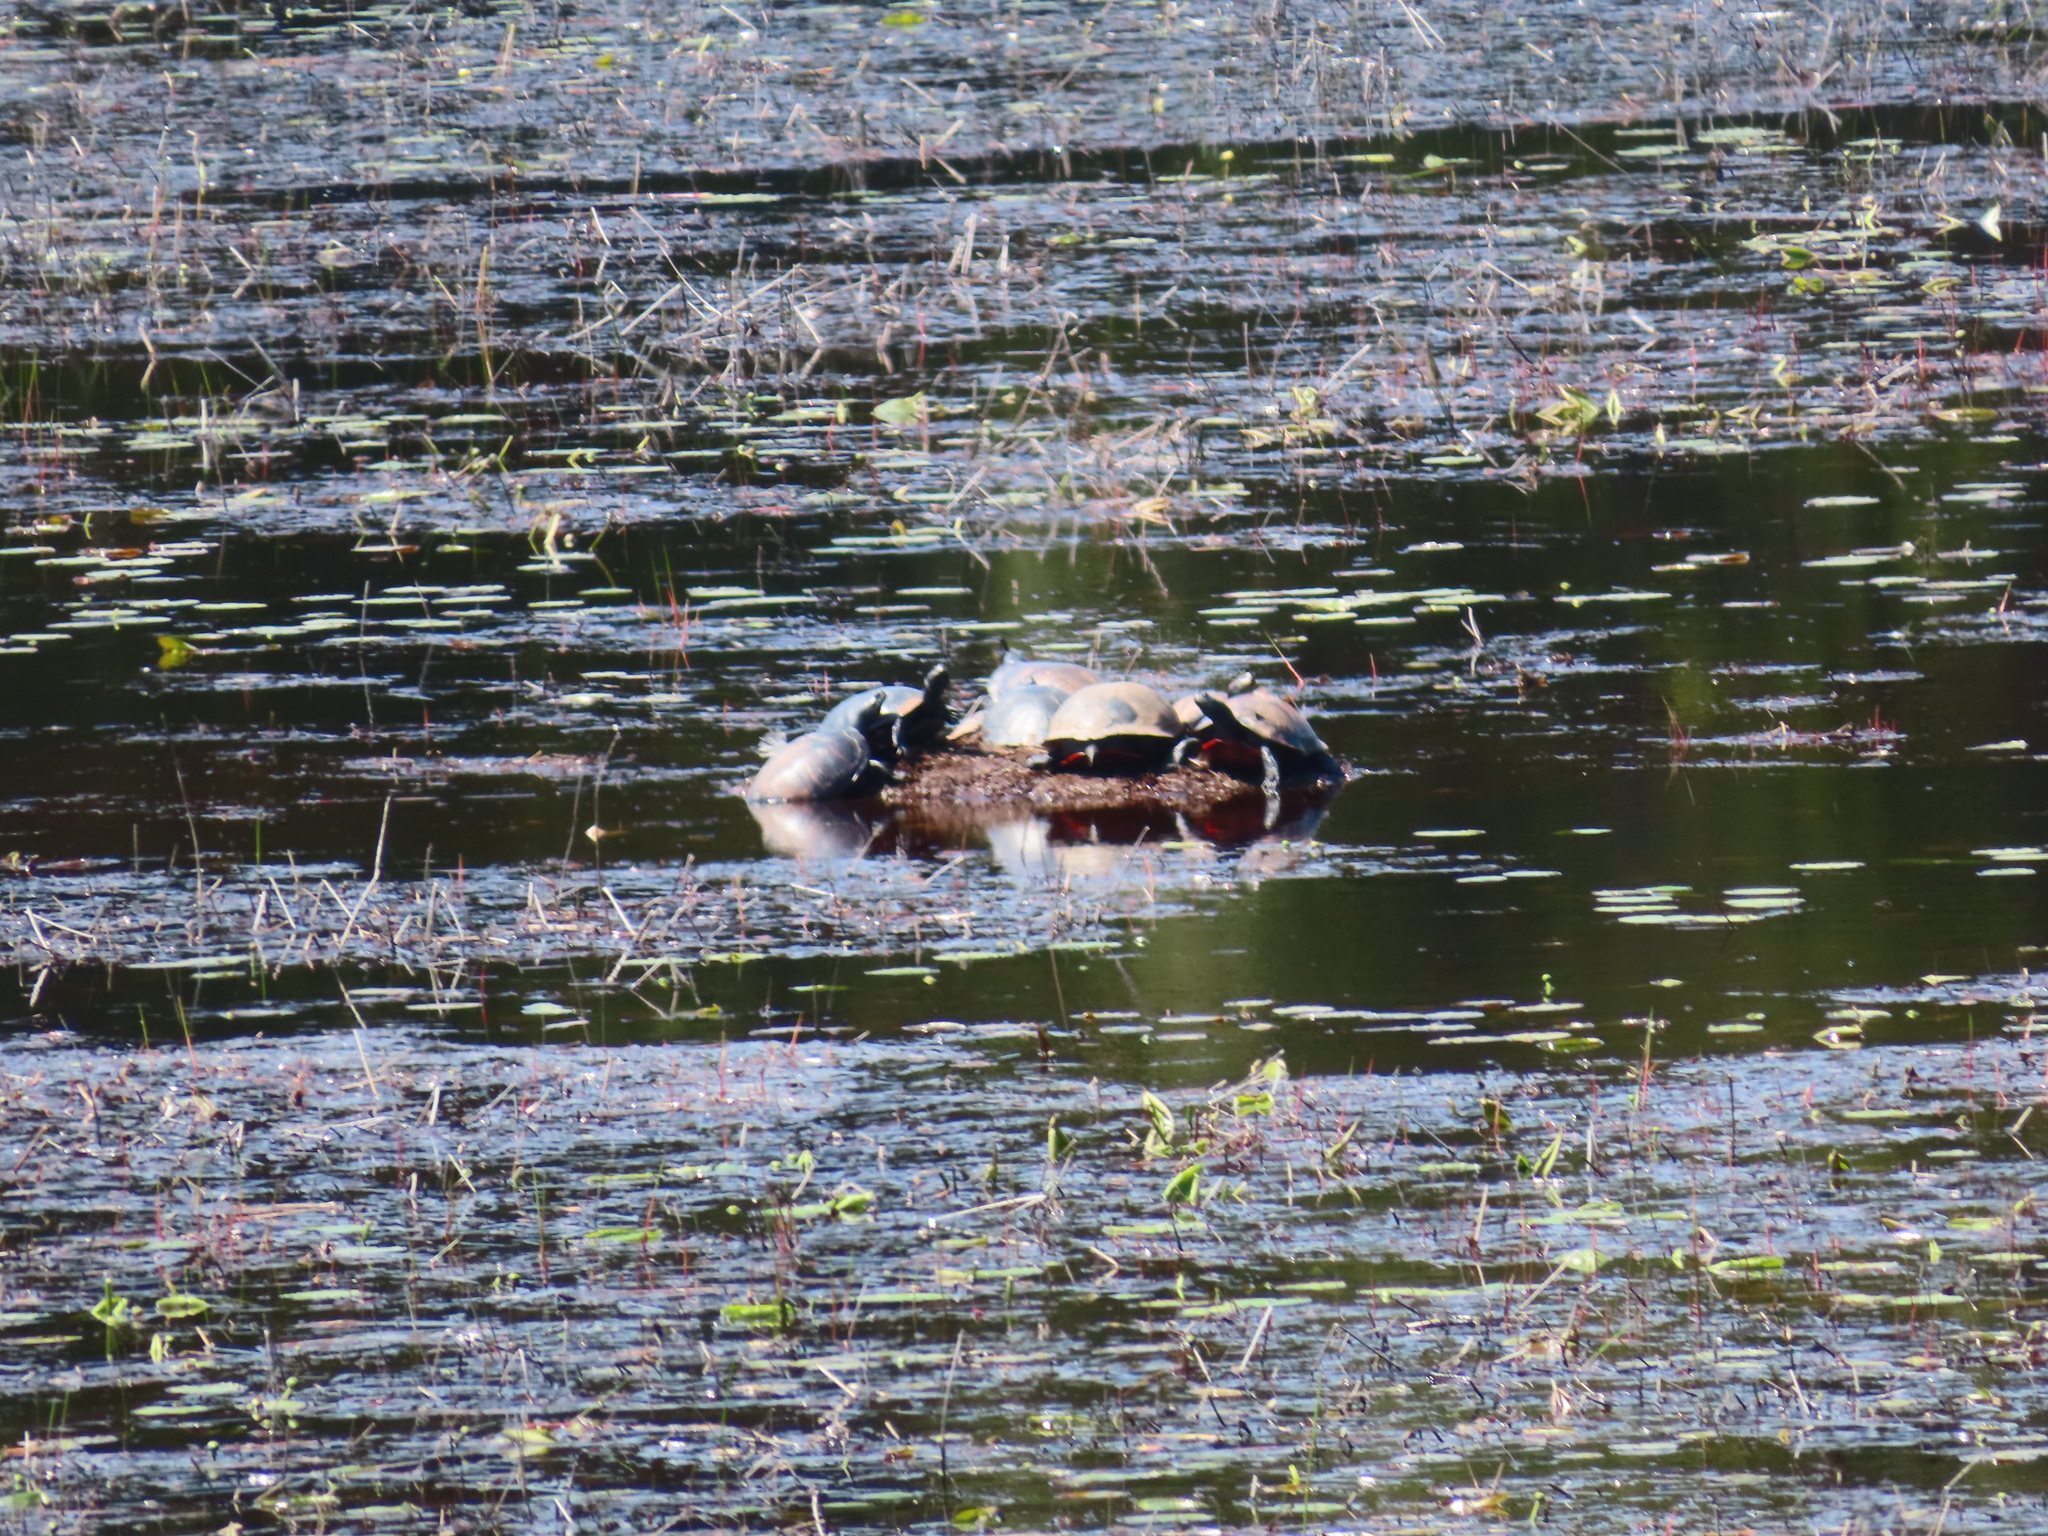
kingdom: Animalia
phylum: Chordata
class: Testudines
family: Emydidae
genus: Pseudemys
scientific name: Pseudemys rubriventris
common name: American red-bellied turtle
